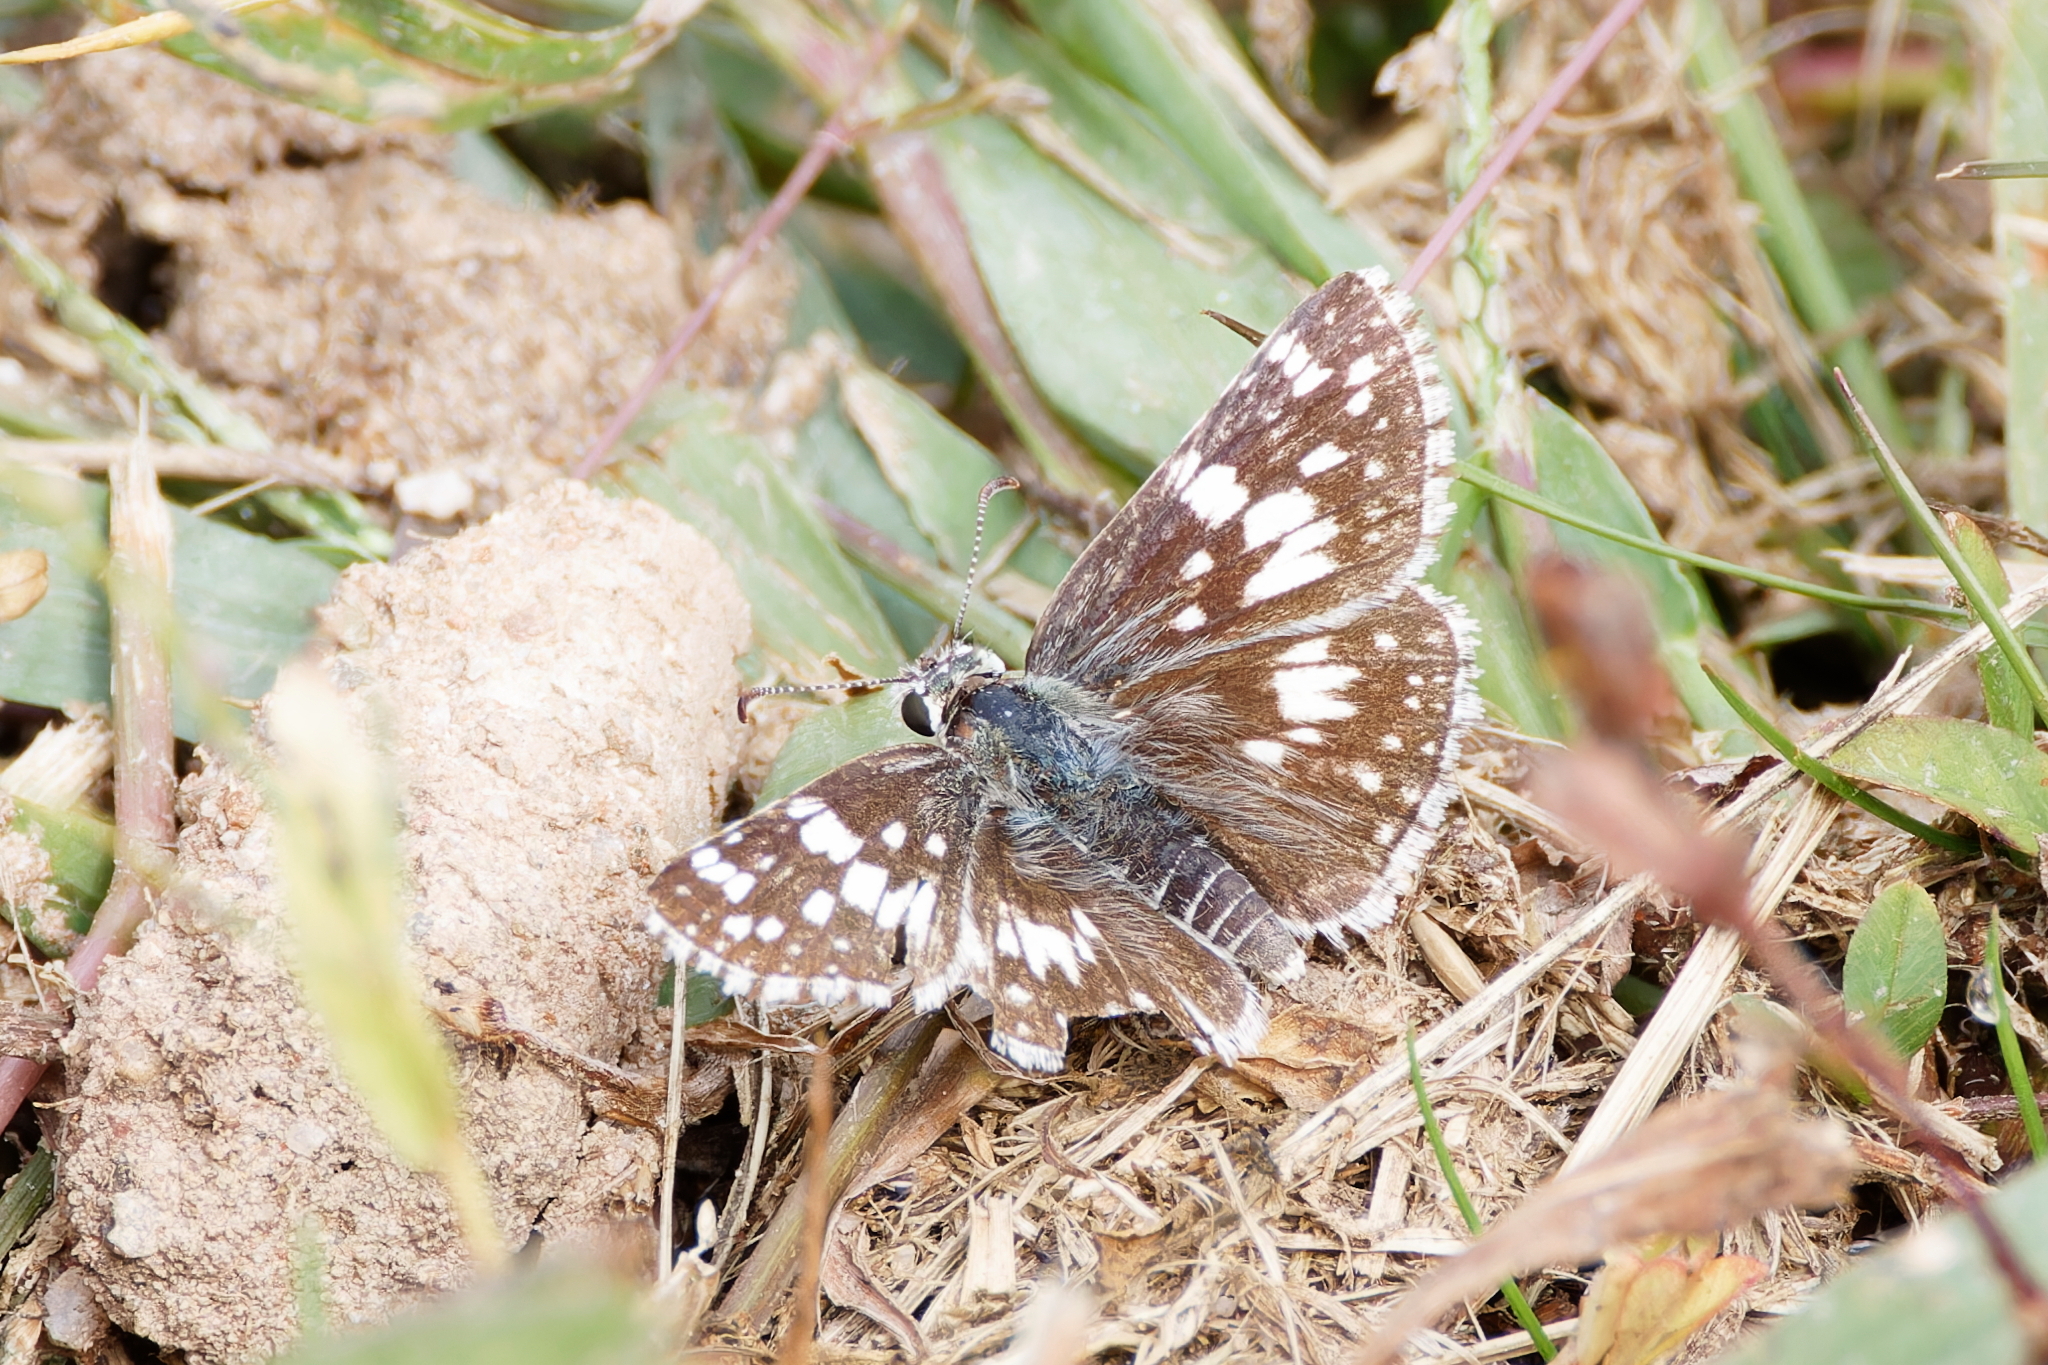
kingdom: Animalia
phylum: Arthropoda
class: Insecta
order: Lepidoptera
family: Hesperiidae
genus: Burnsius
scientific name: Burnsius communis
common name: Common checkered-skipper
